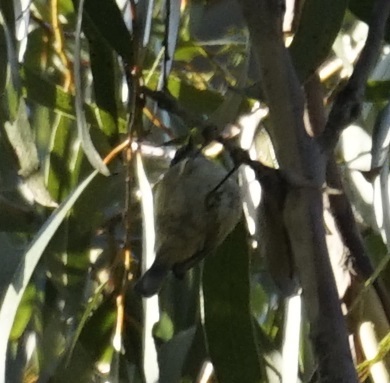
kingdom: Animalia
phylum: Chordata
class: Aves
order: Passeriformes
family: Acanthizidae
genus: Acanthiza
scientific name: Acanthiza pusilla
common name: Brown thornbill
